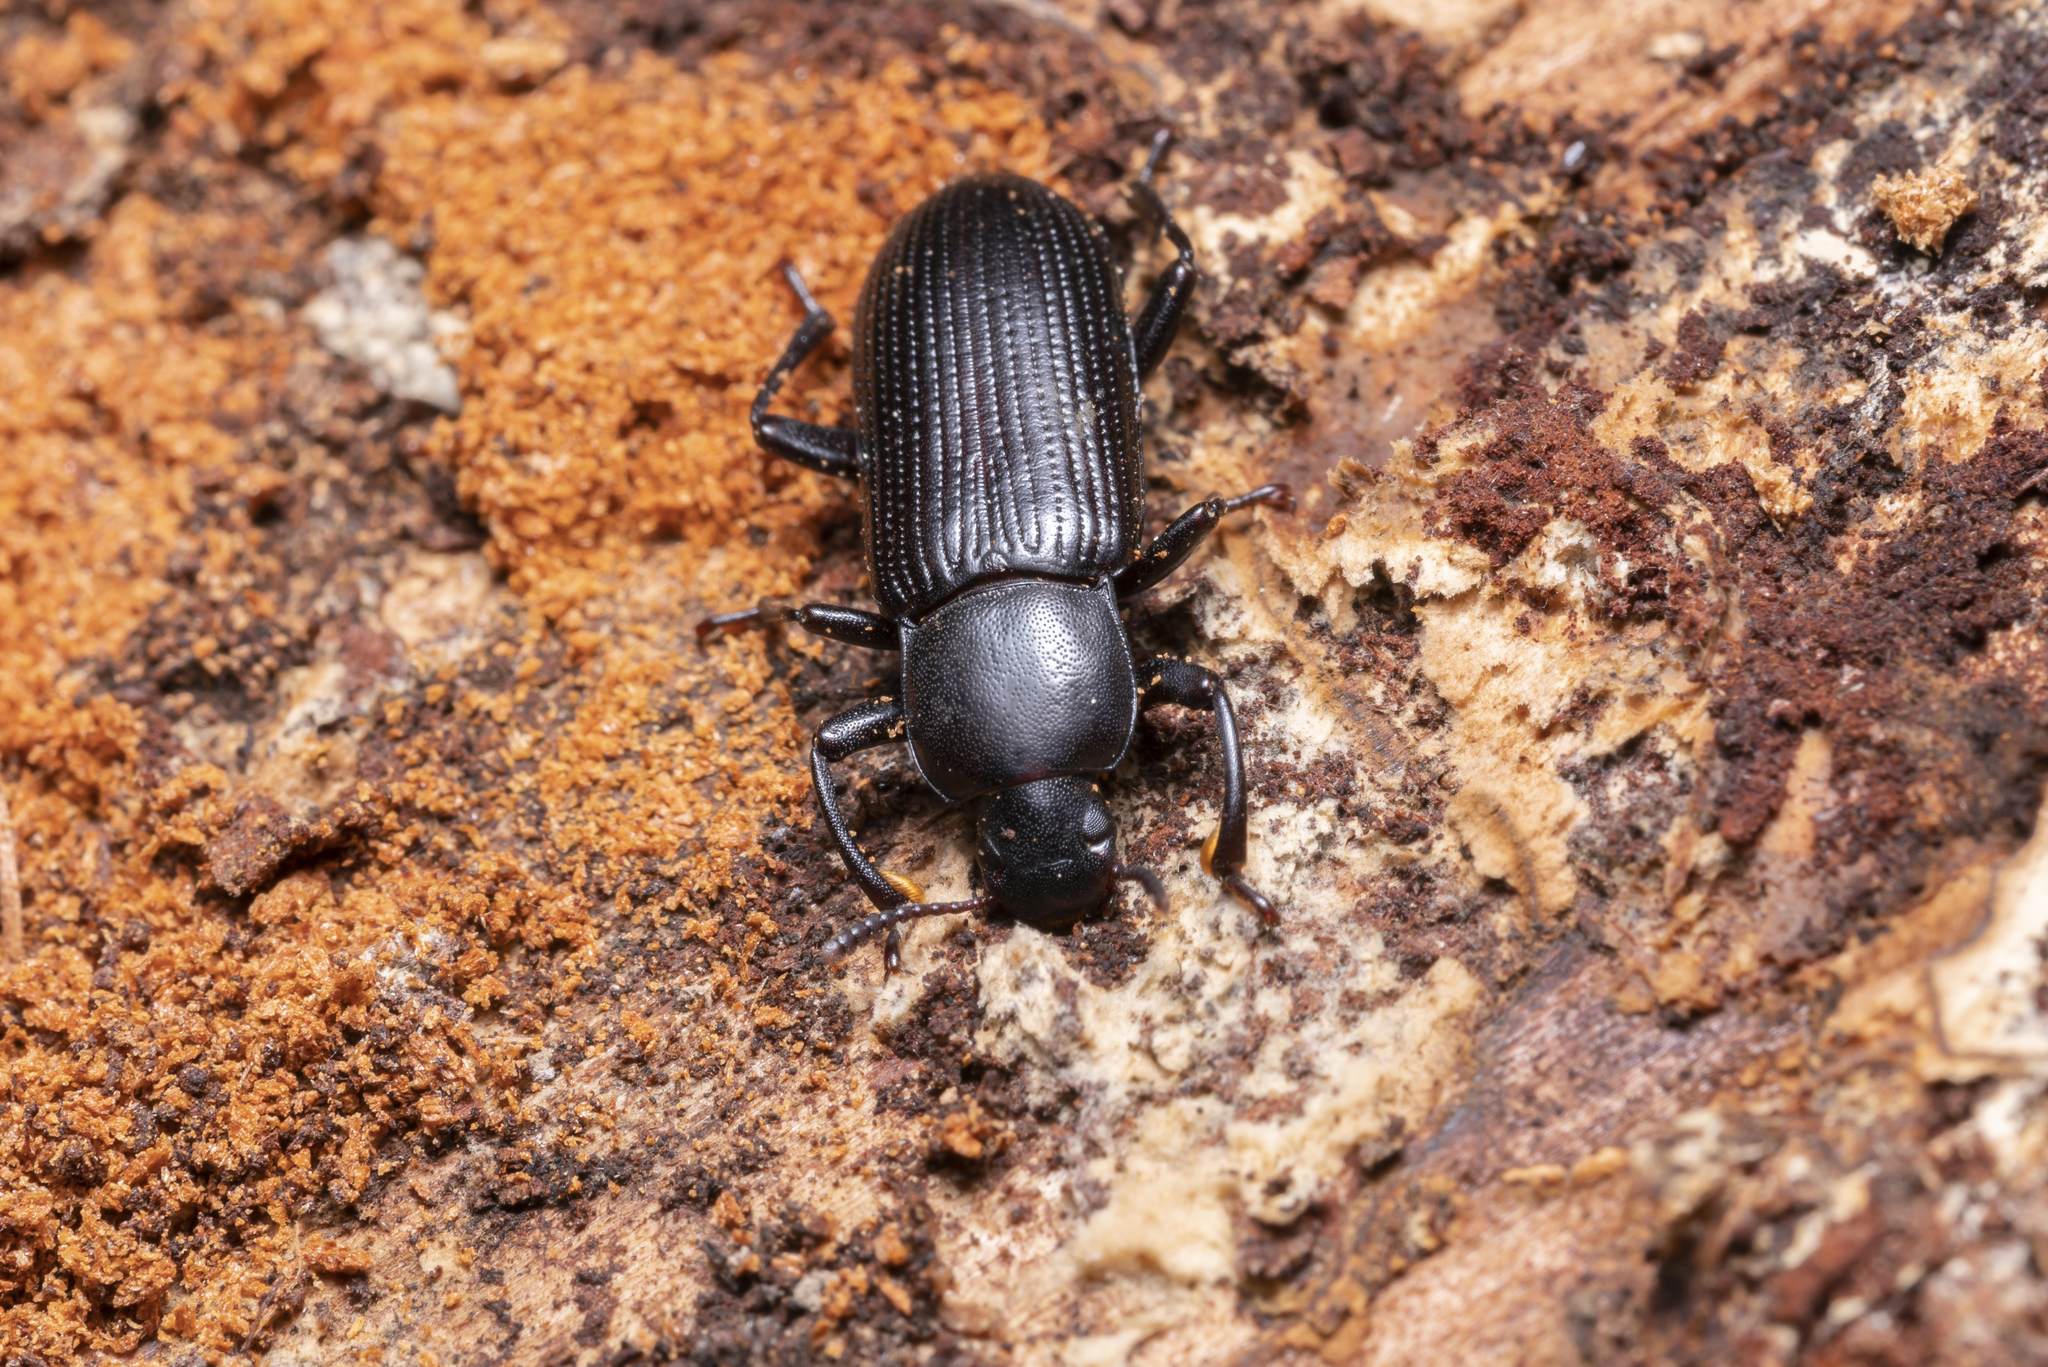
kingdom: Animalia
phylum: Arthropoda
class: Insecta
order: Coleoptera
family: Tenebrionidae
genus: Menephilus
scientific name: Menephilus cylindricus
